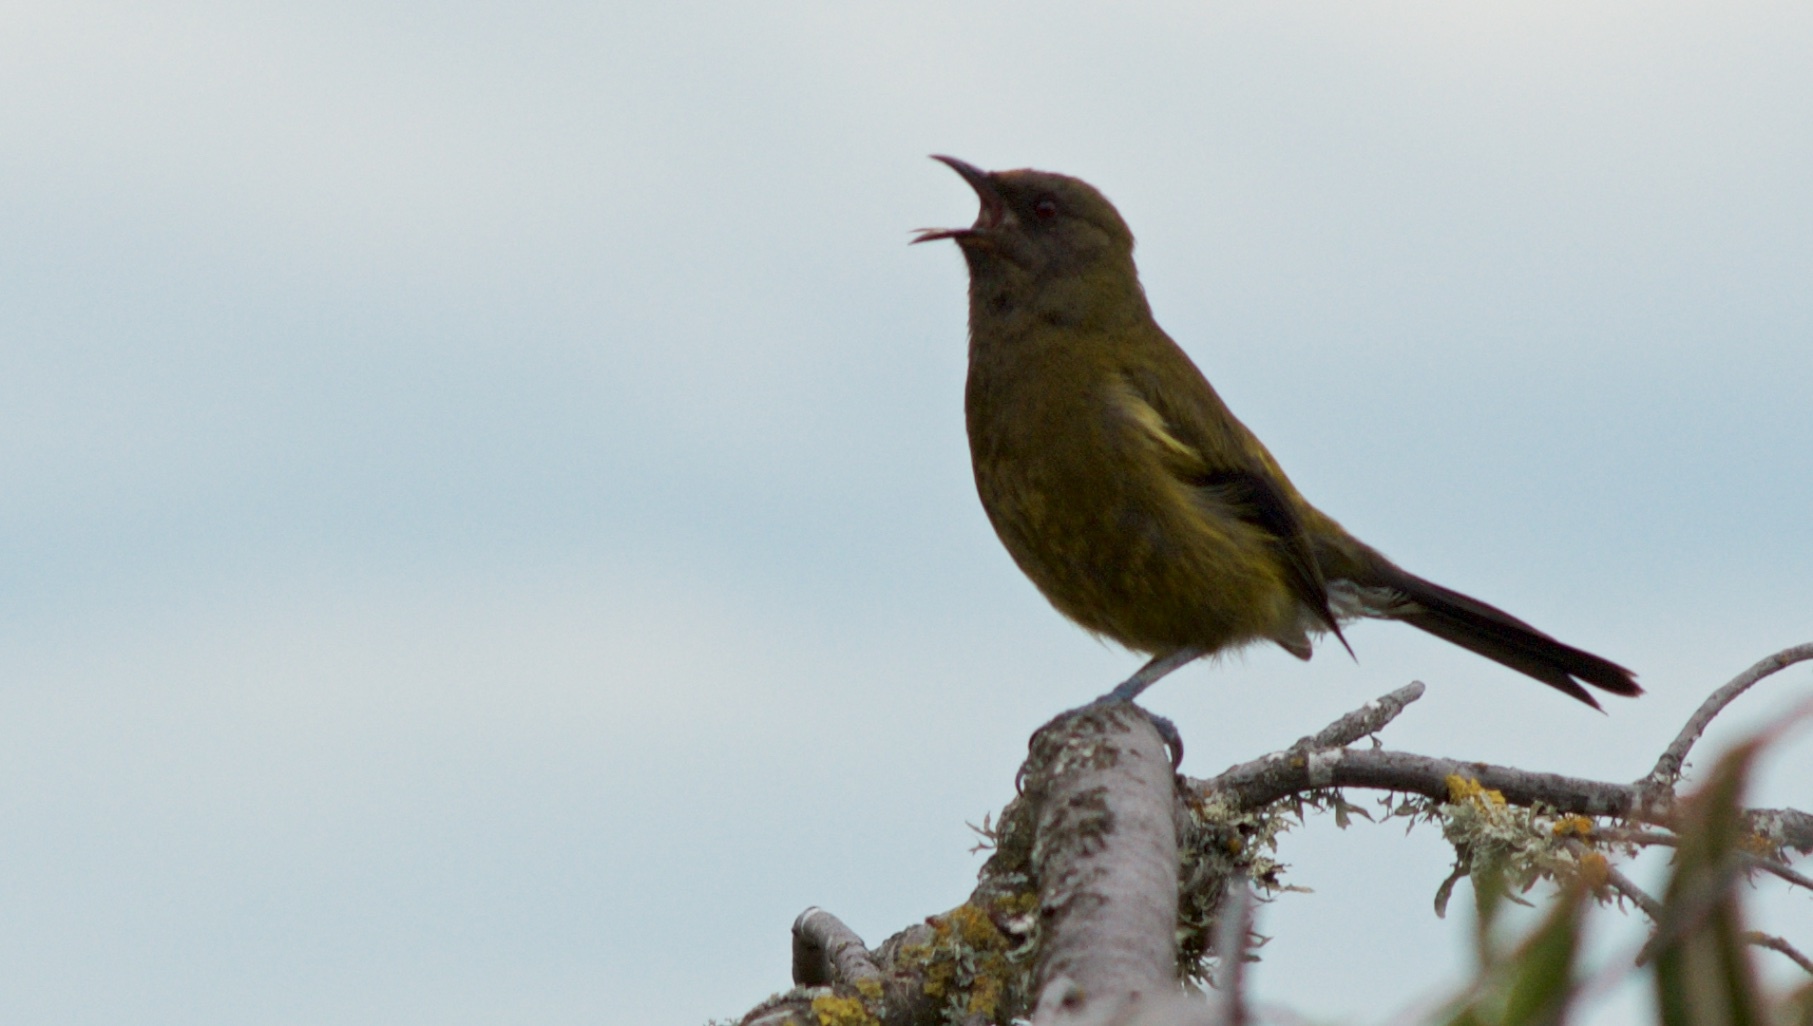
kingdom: Animalia
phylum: Chordata
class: Aves
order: Passeriformes
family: Meliphagidae
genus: Anthornis
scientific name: Anthornis melanura
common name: New zealand bellbird
